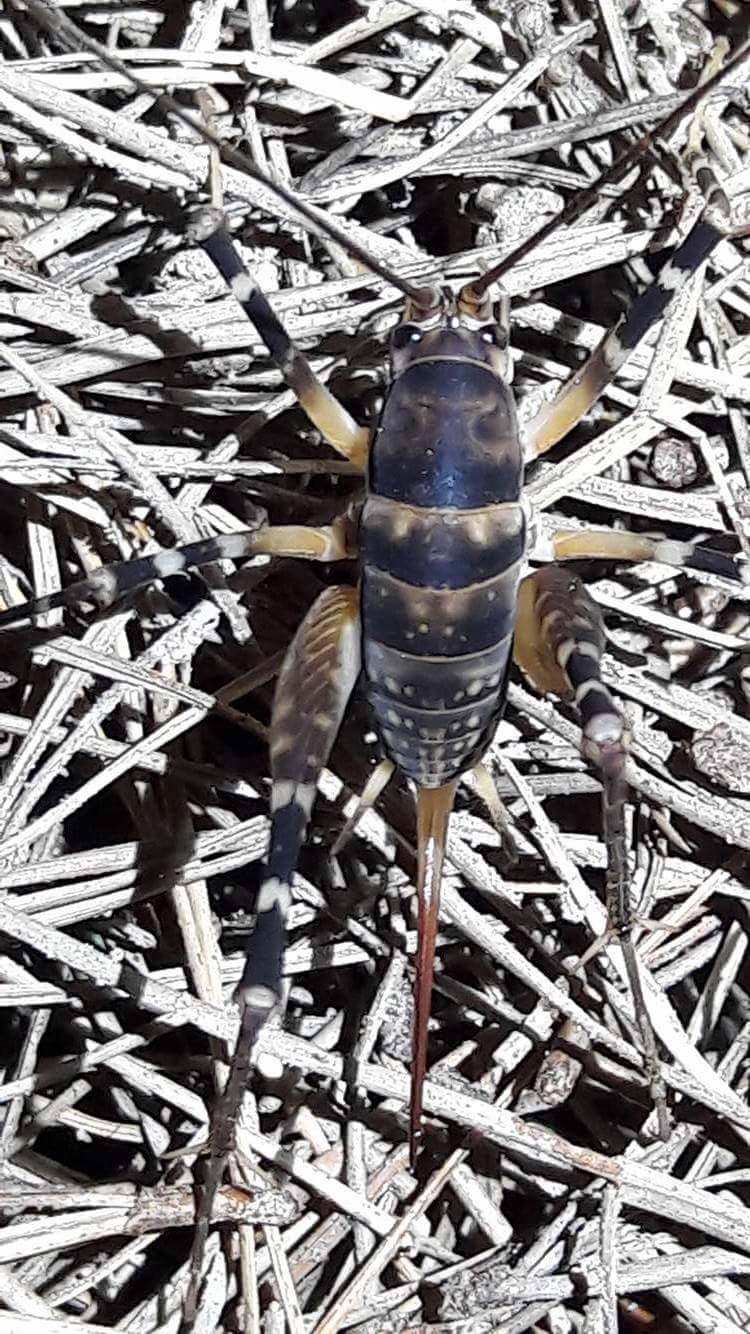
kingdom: Animalia
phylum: Arthropoda
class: Insecta
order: Orthoptera
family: Rhaphidophoridae
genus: Pachyrhamma
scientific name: Pachyrhamma edwardsii
